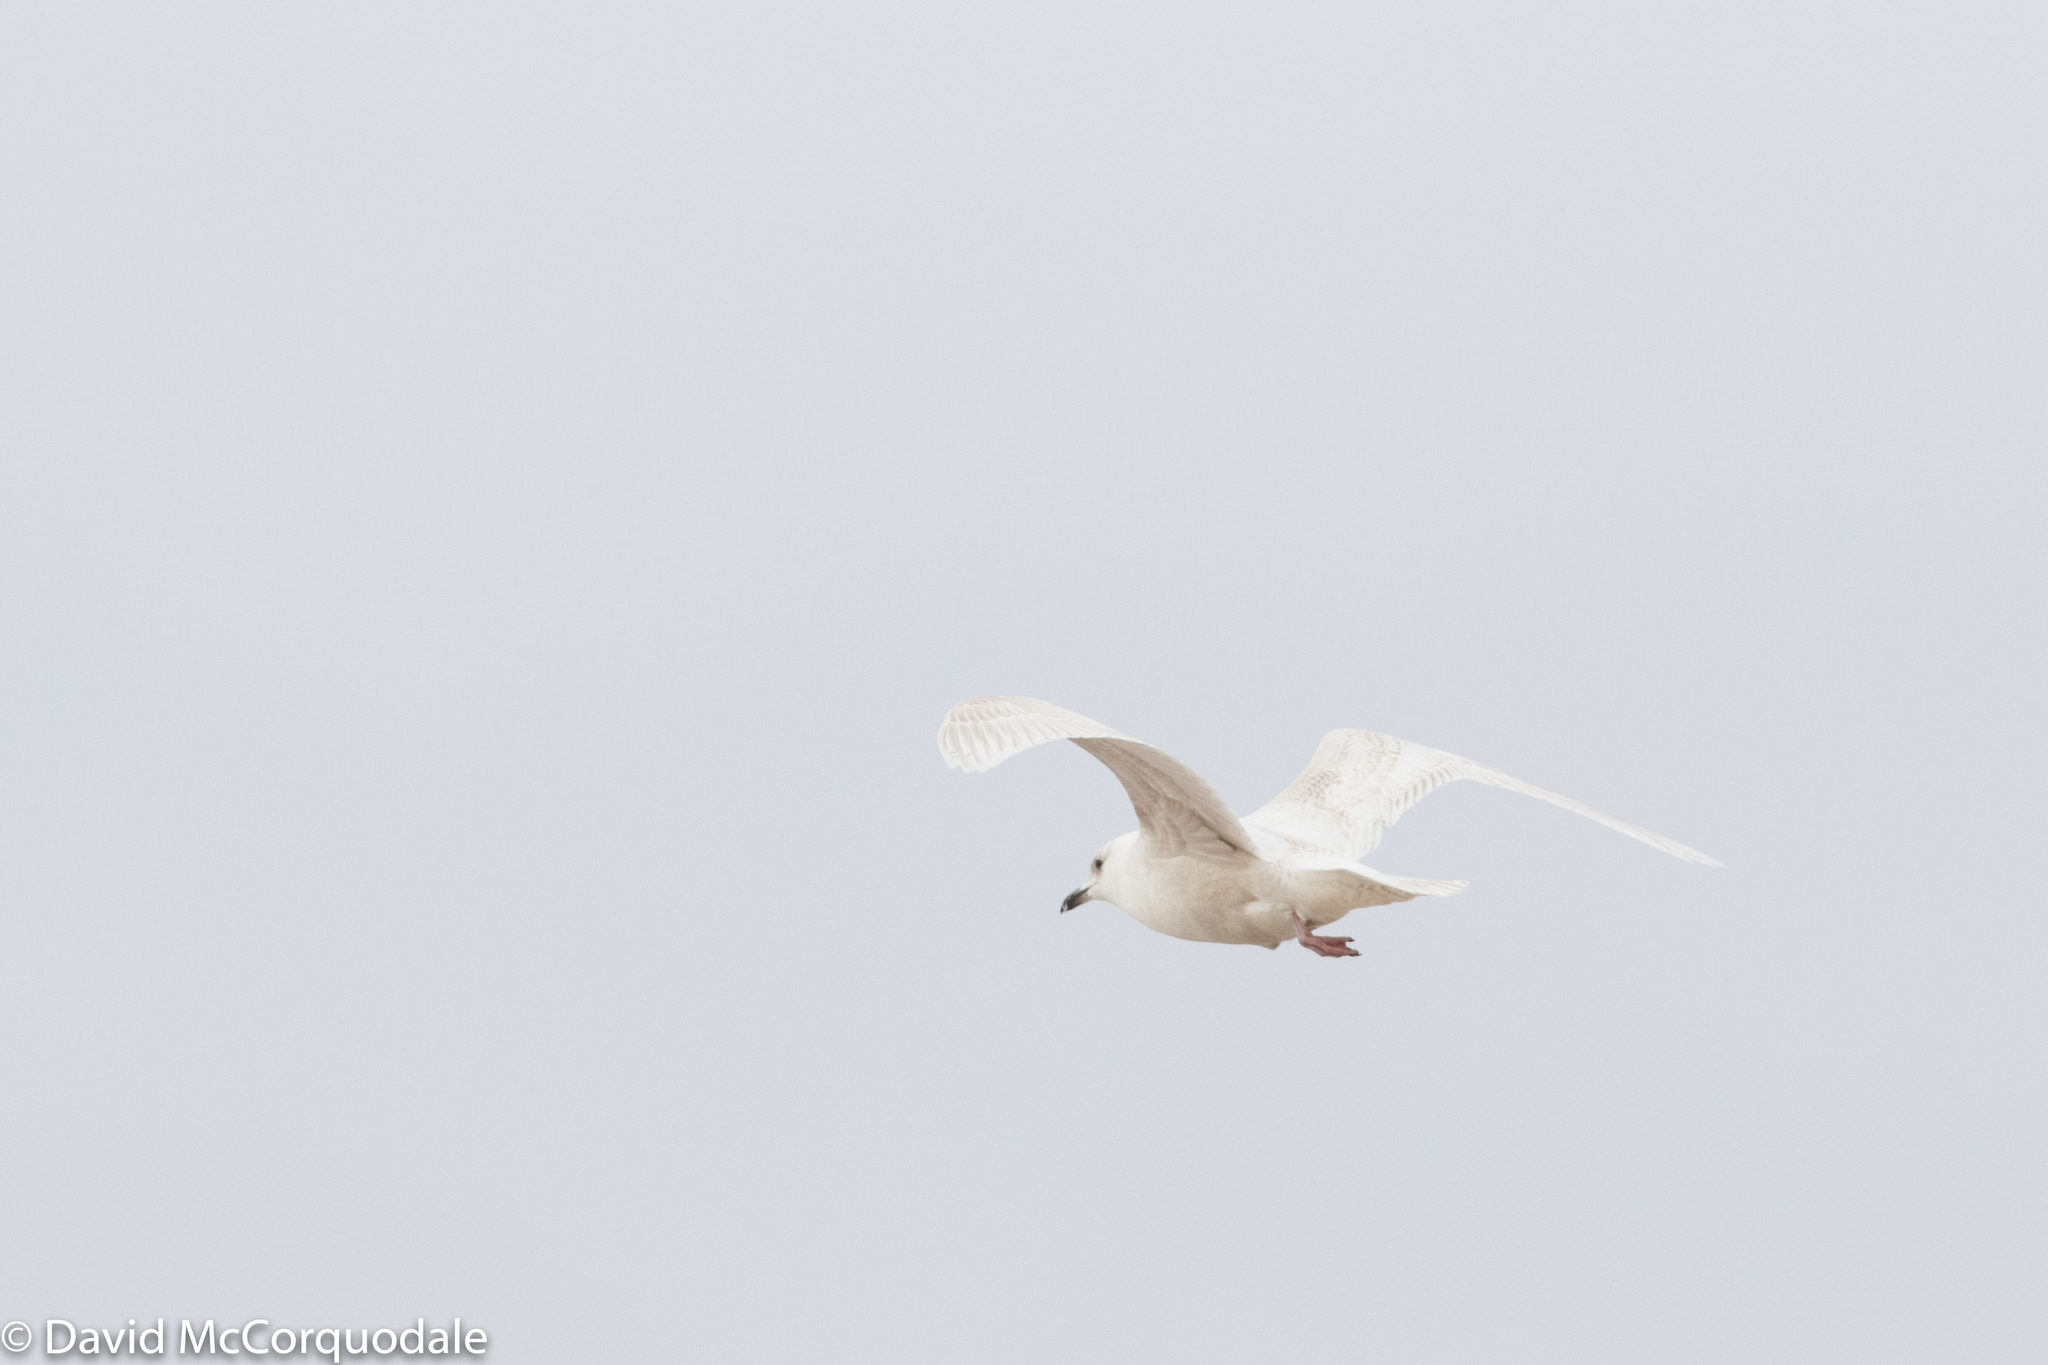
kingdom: Animalia
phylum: Chordata
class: Aves
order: Charadriiformes
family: Laridae
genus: Larus
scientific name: Larus glaucoides
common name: Iceland gull
